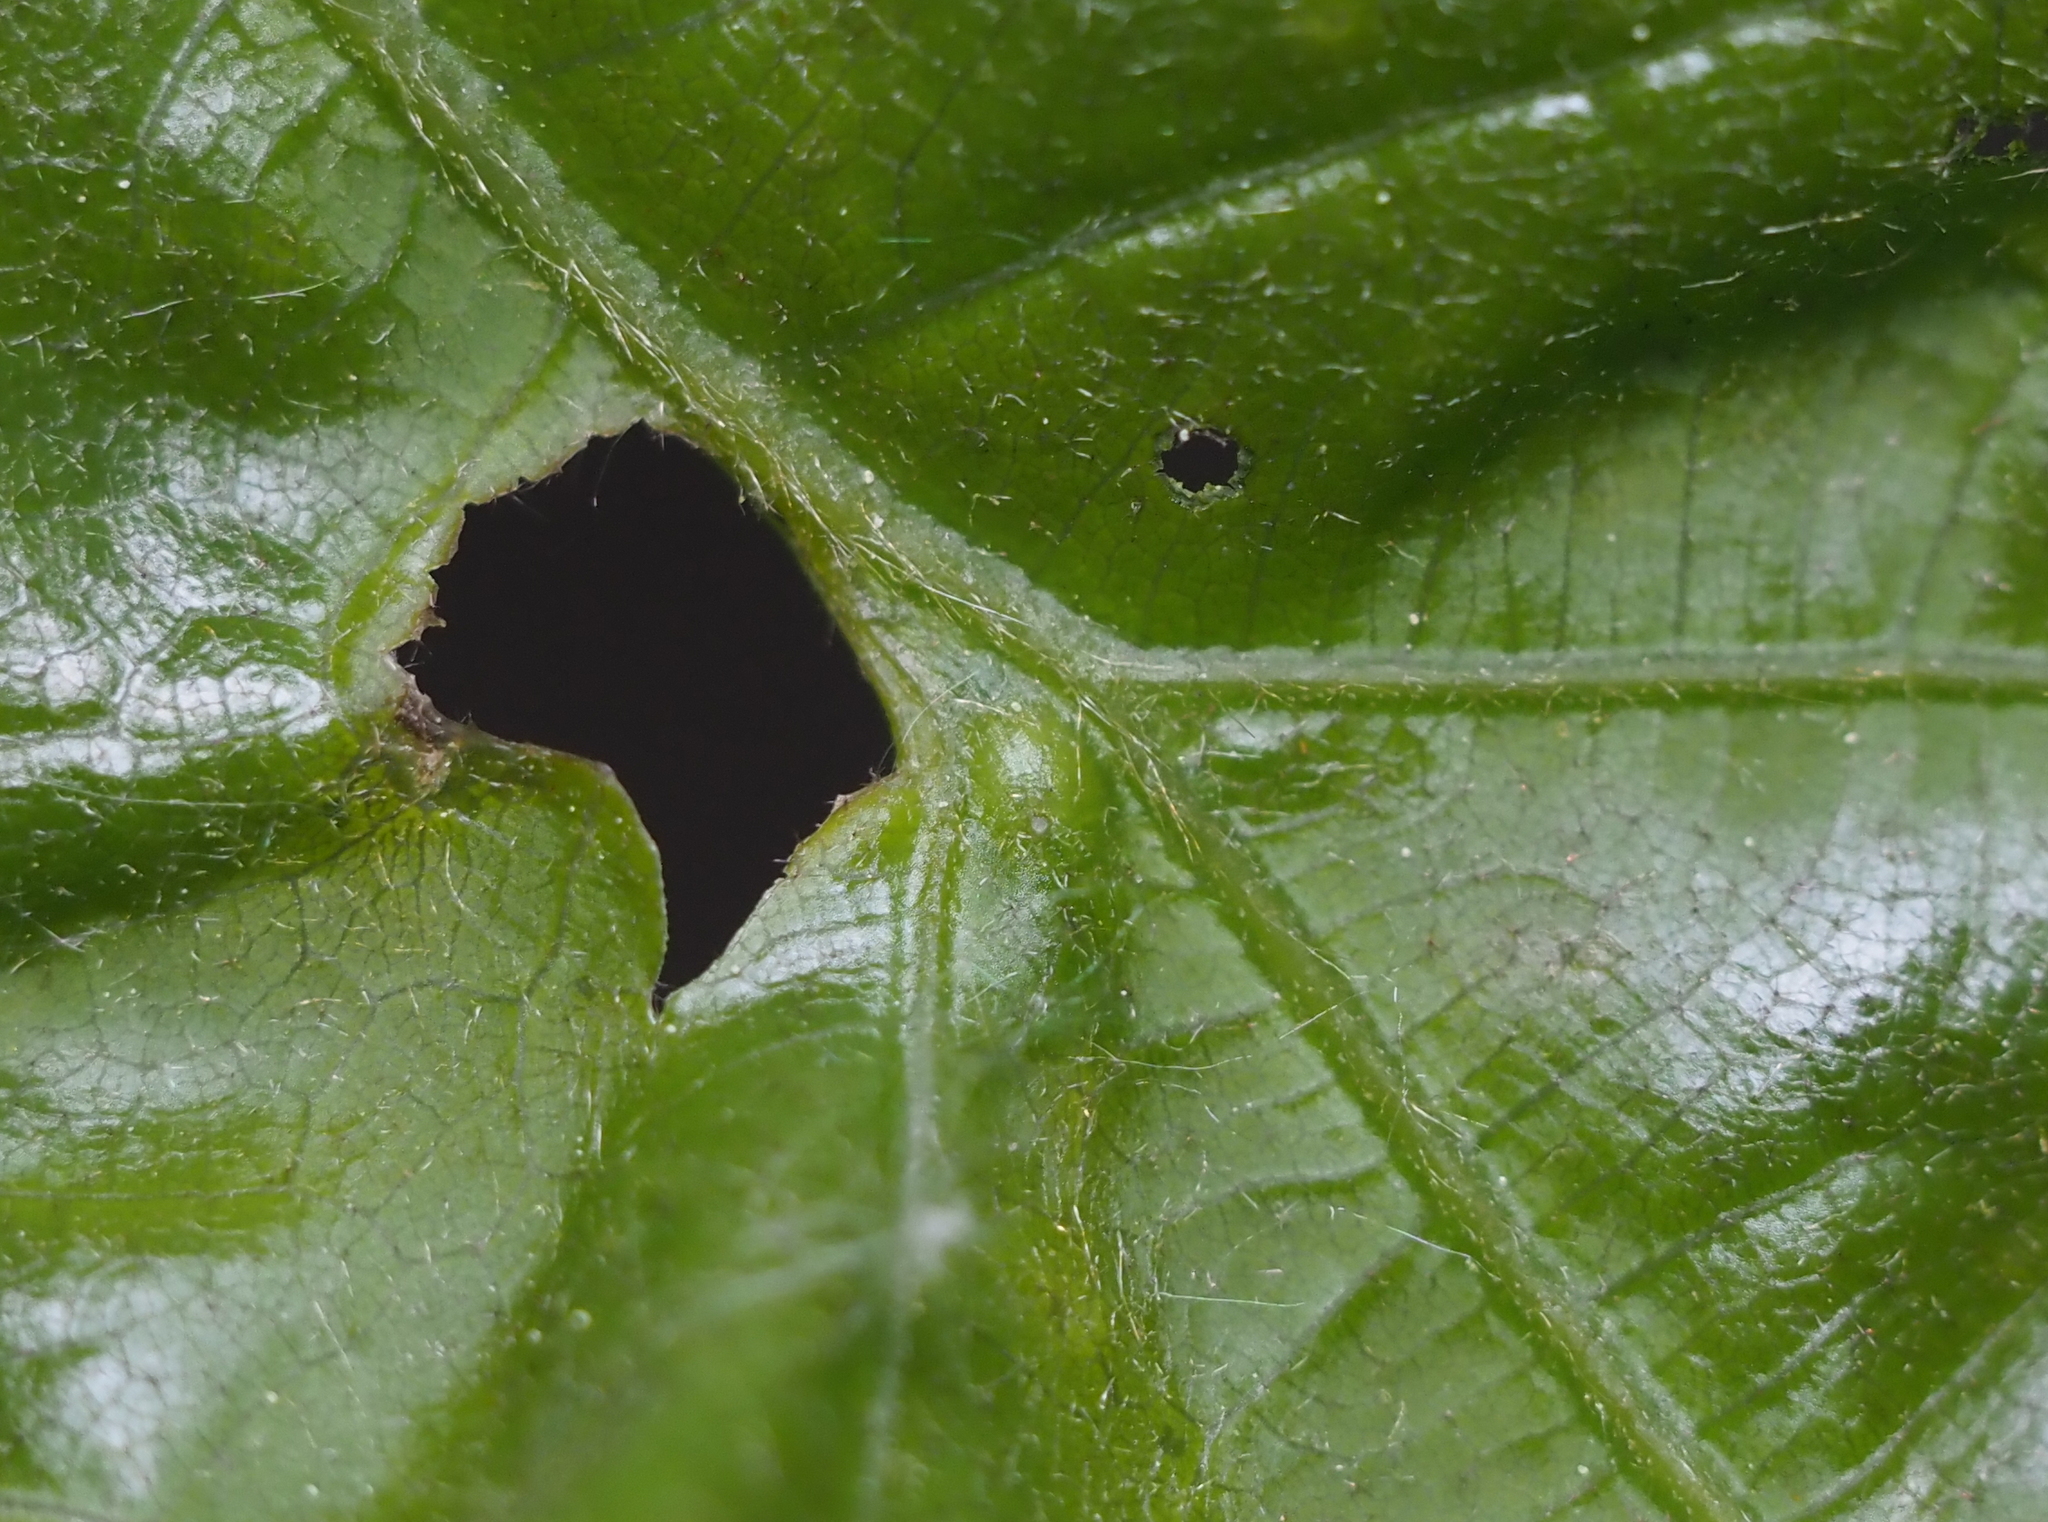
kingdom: Animalia
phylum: Arthropoda
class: Insecta
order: Hymenoptera
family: Cynipidae
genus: Dryocosmus
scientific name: Dryocosmus
